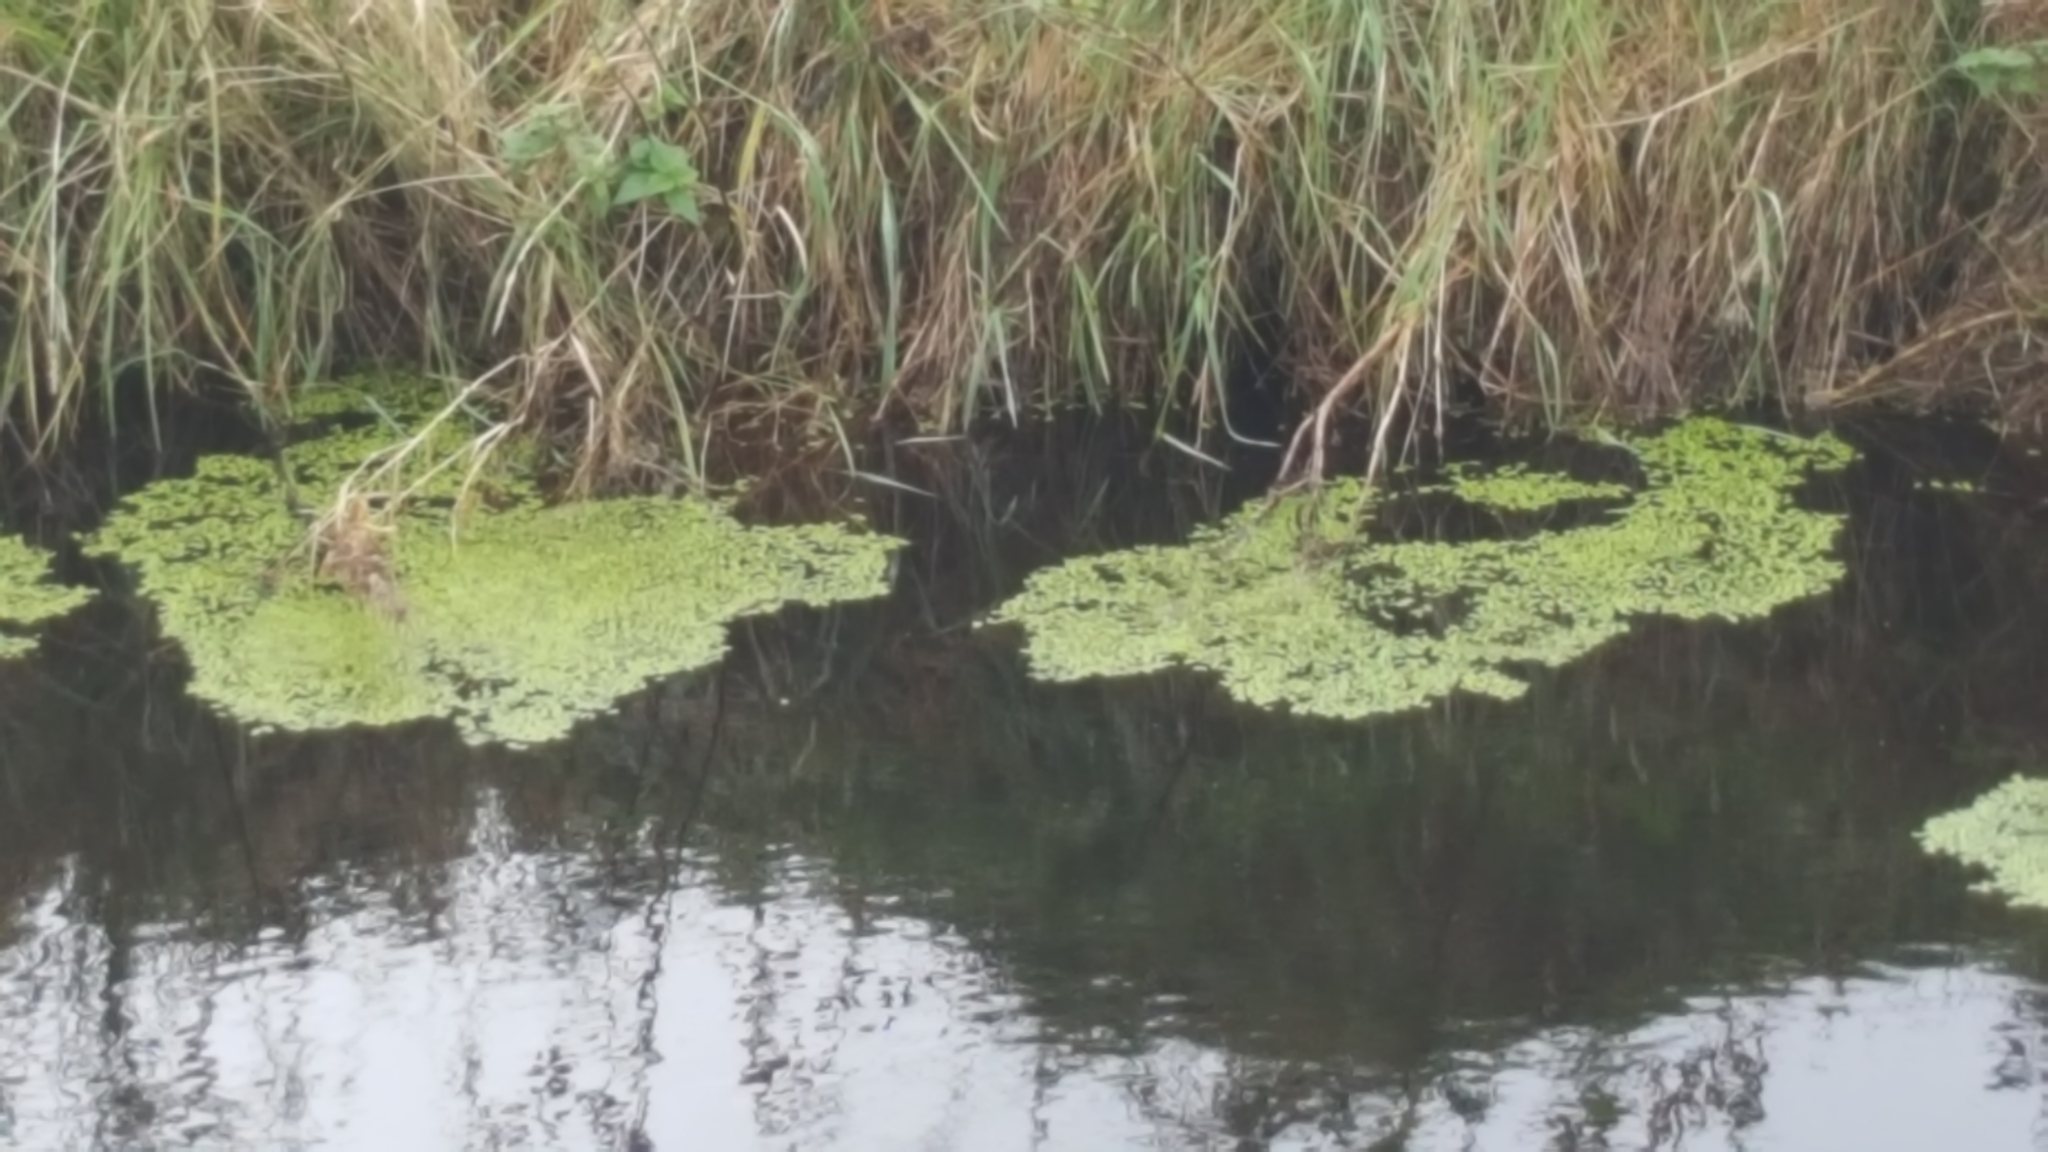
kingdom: Plantae
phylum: Tracheophyta
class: Liliopsida
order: Alismatales
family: Araceae
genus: Lemna
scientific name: Lemna
